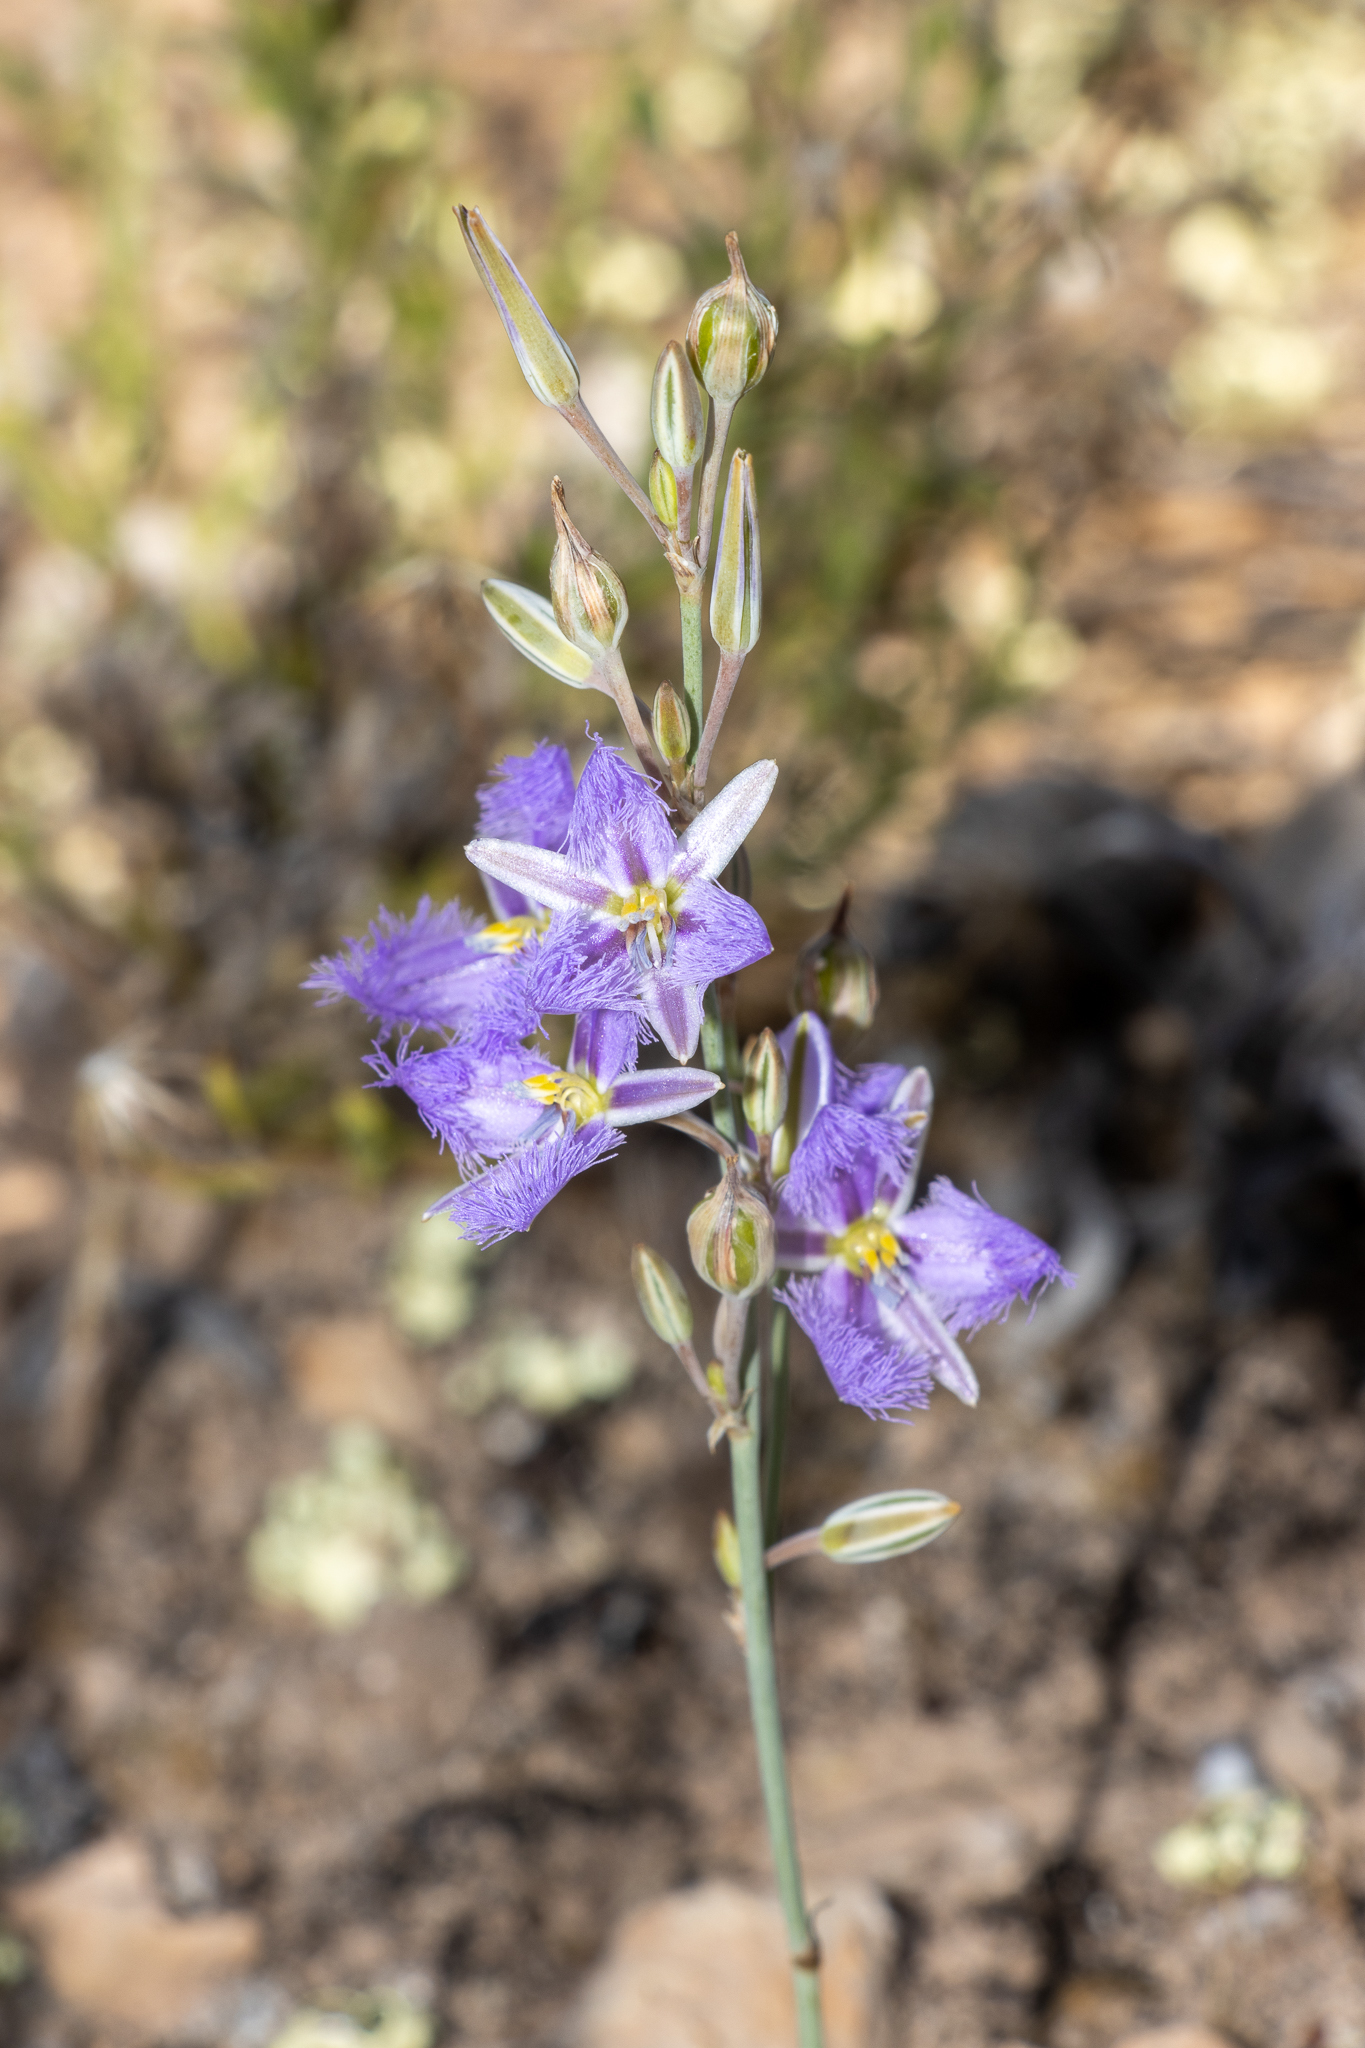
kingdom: Plantae
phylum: Tracheophyta
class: Liliopsida
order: Asparagales
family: Asparagaceae
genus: Thysanotus
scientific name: Thysanotus baueri
